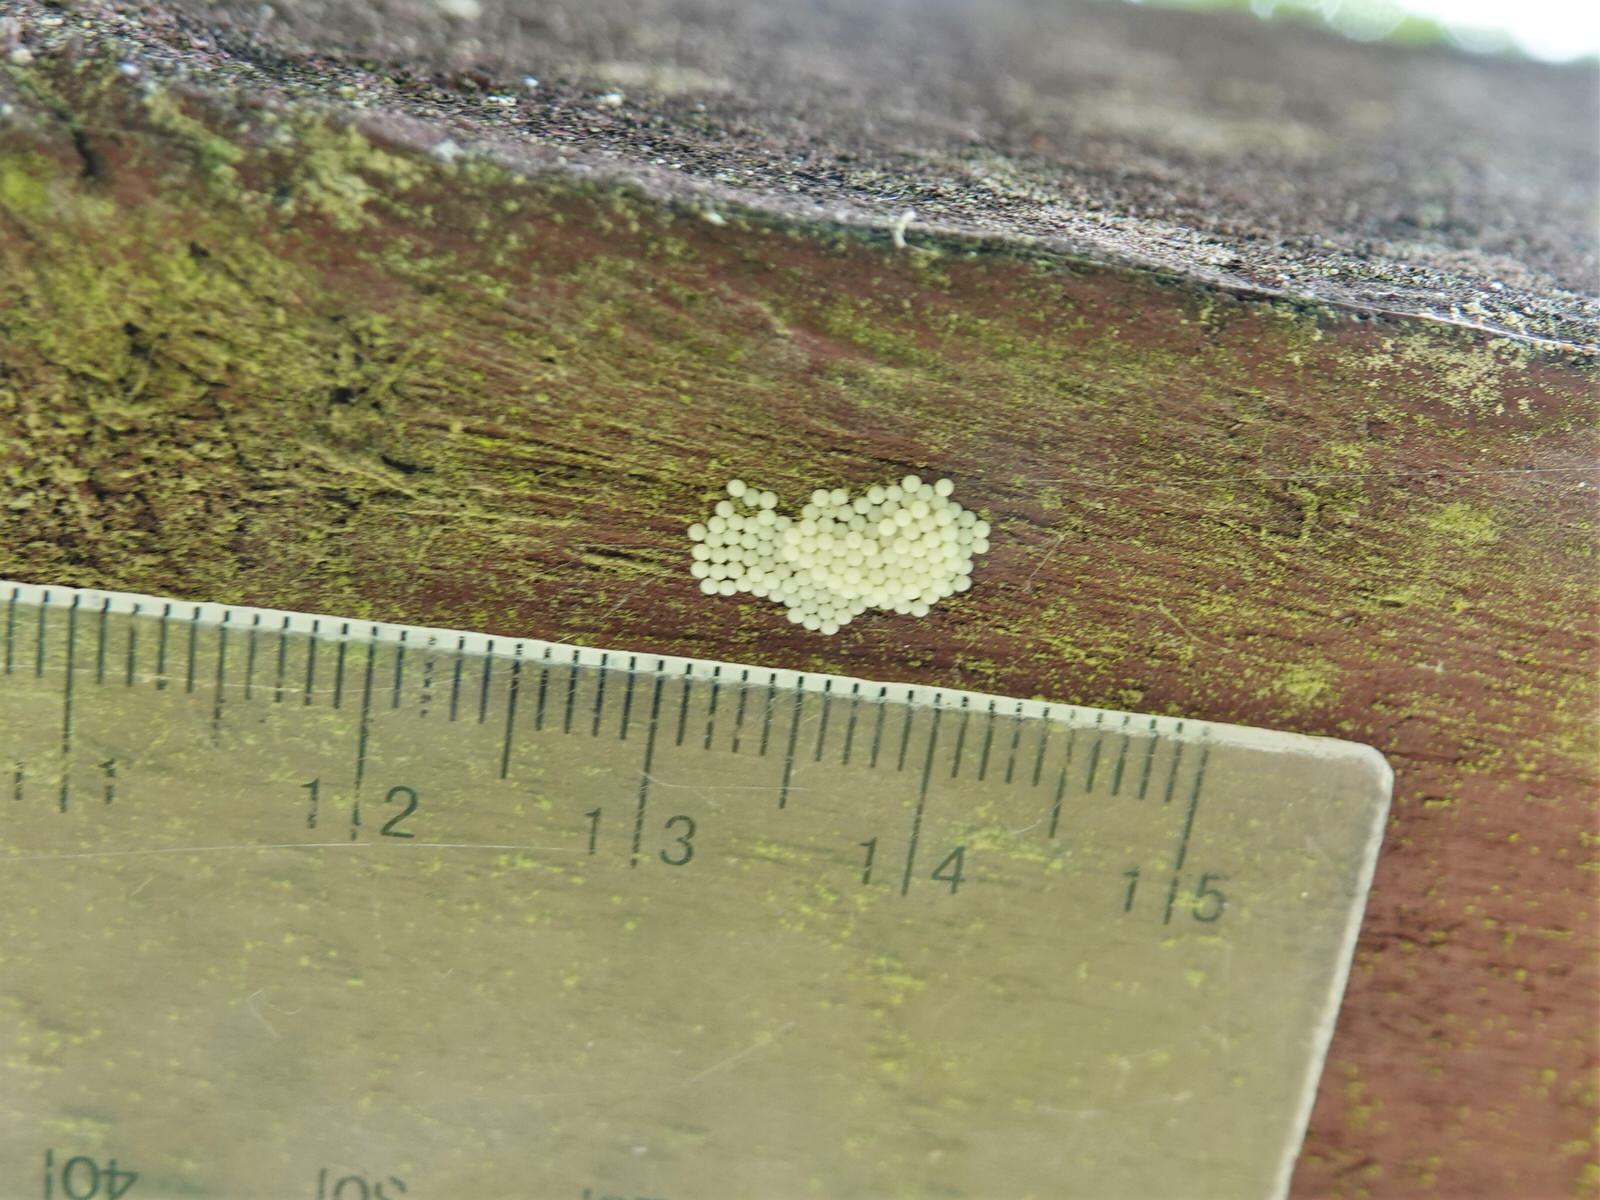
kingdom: Animalia
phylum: Arthropoda
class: Insecta
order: Lepidoptera
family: Noctuidae
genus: Ichneutica
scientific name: Ichneutica mutans
